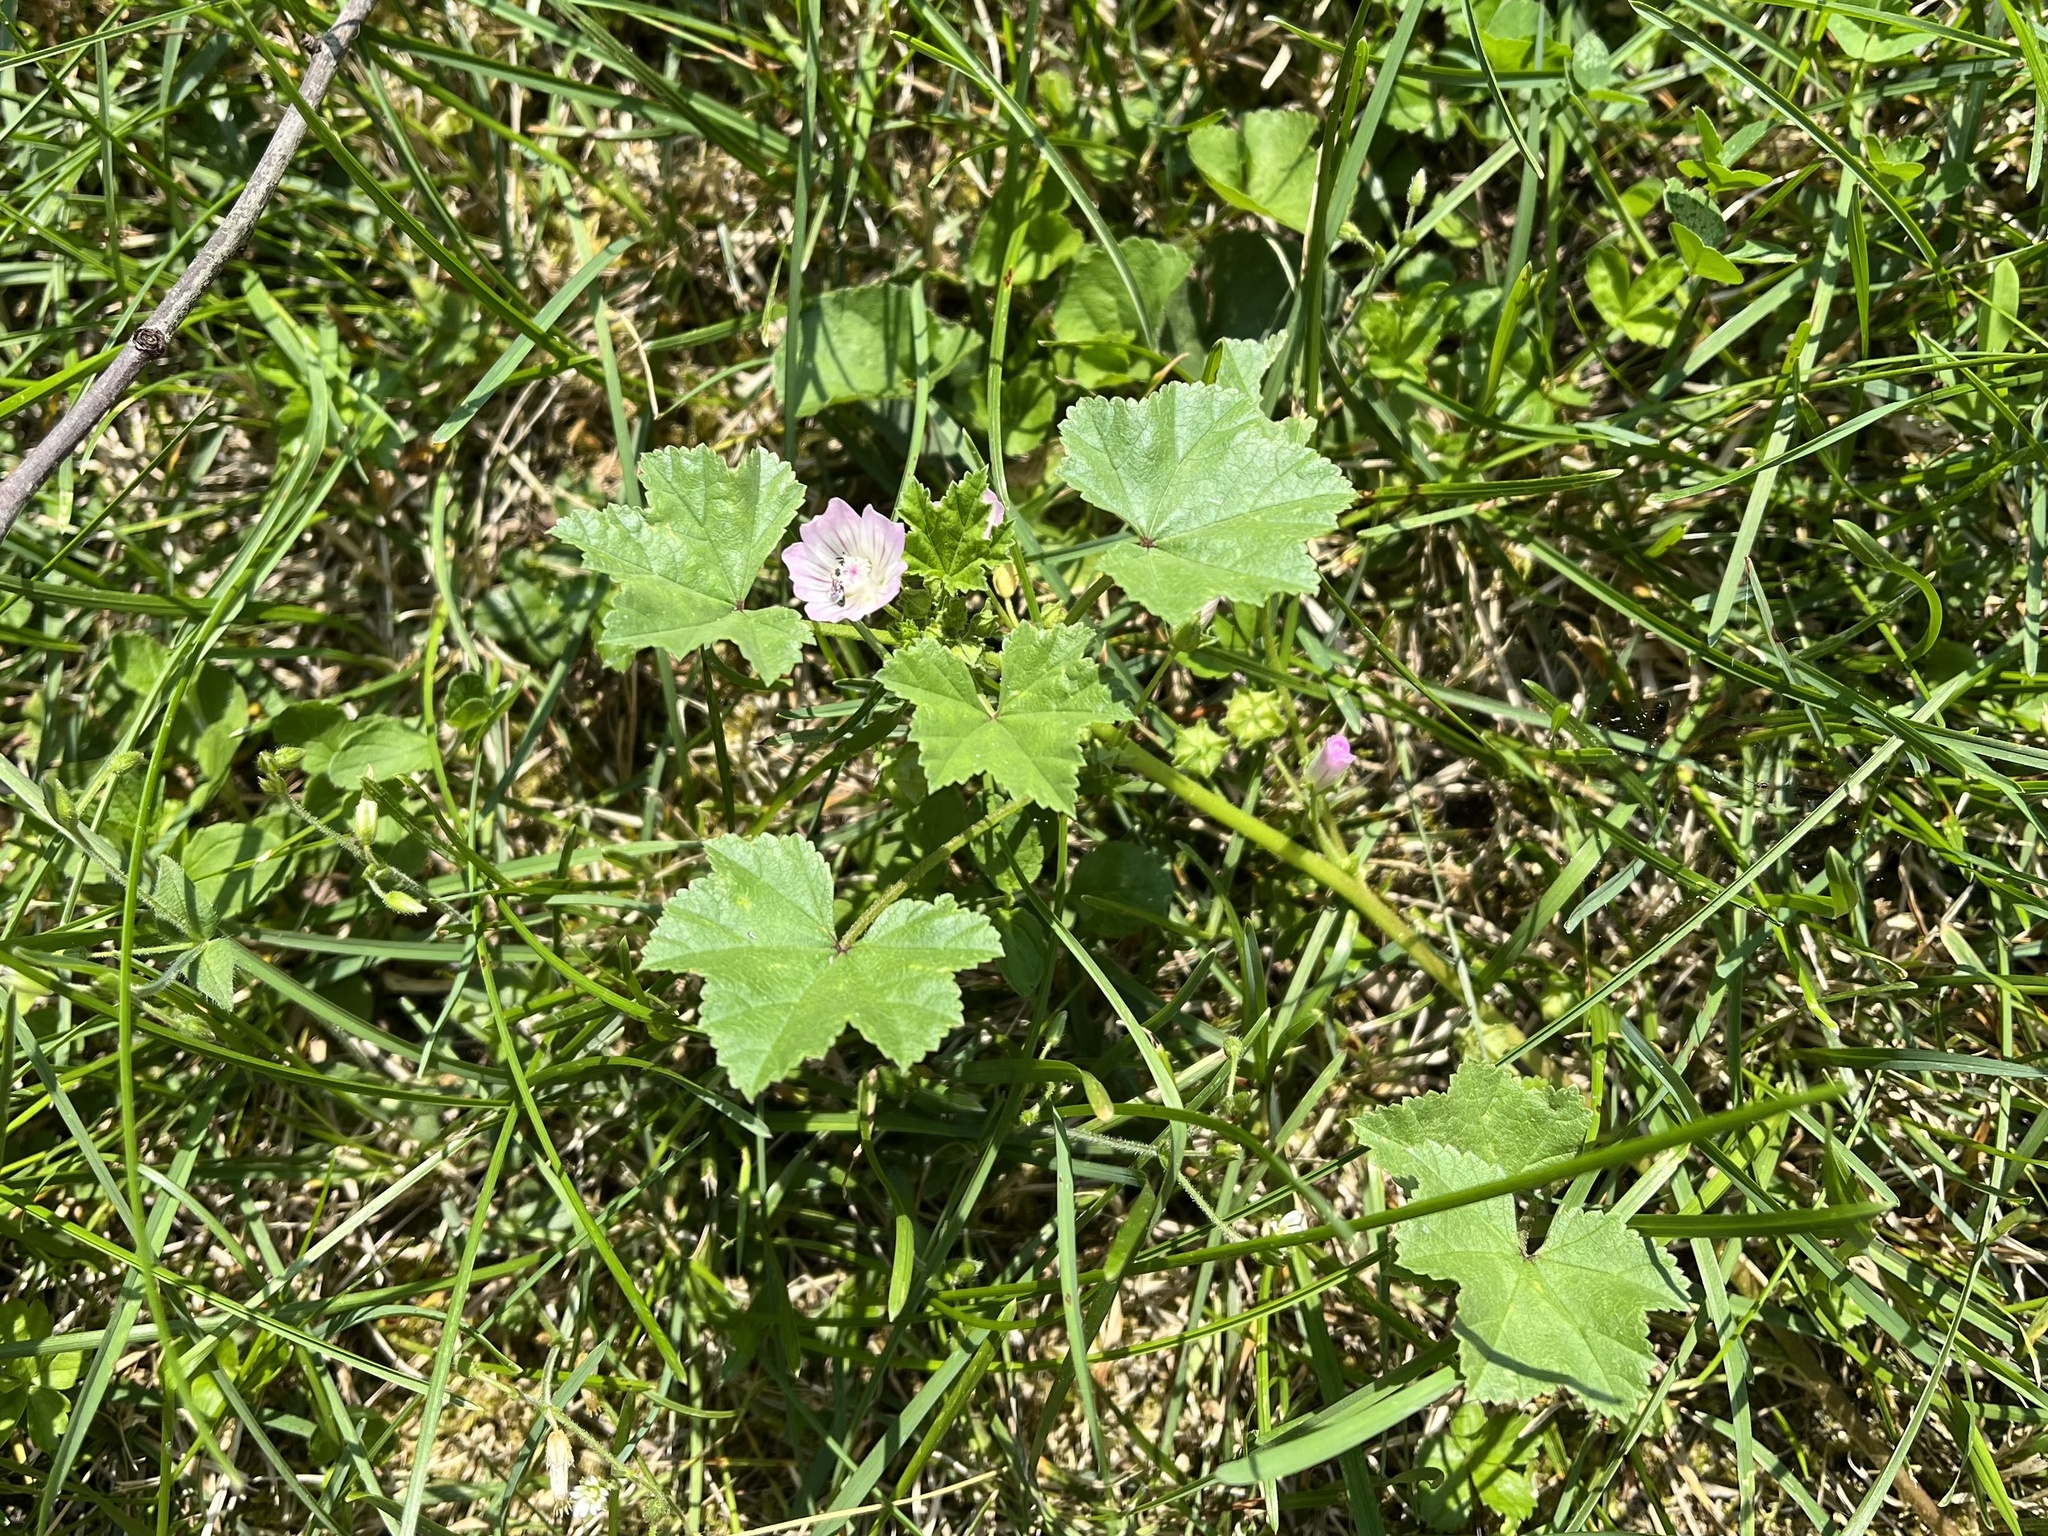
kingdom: Plantae
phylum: Tracheophyta
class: Magnoliopsida
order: Malvales
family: Malvaceae
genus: Malva
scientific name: Malva neglecta
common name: Common mallow
